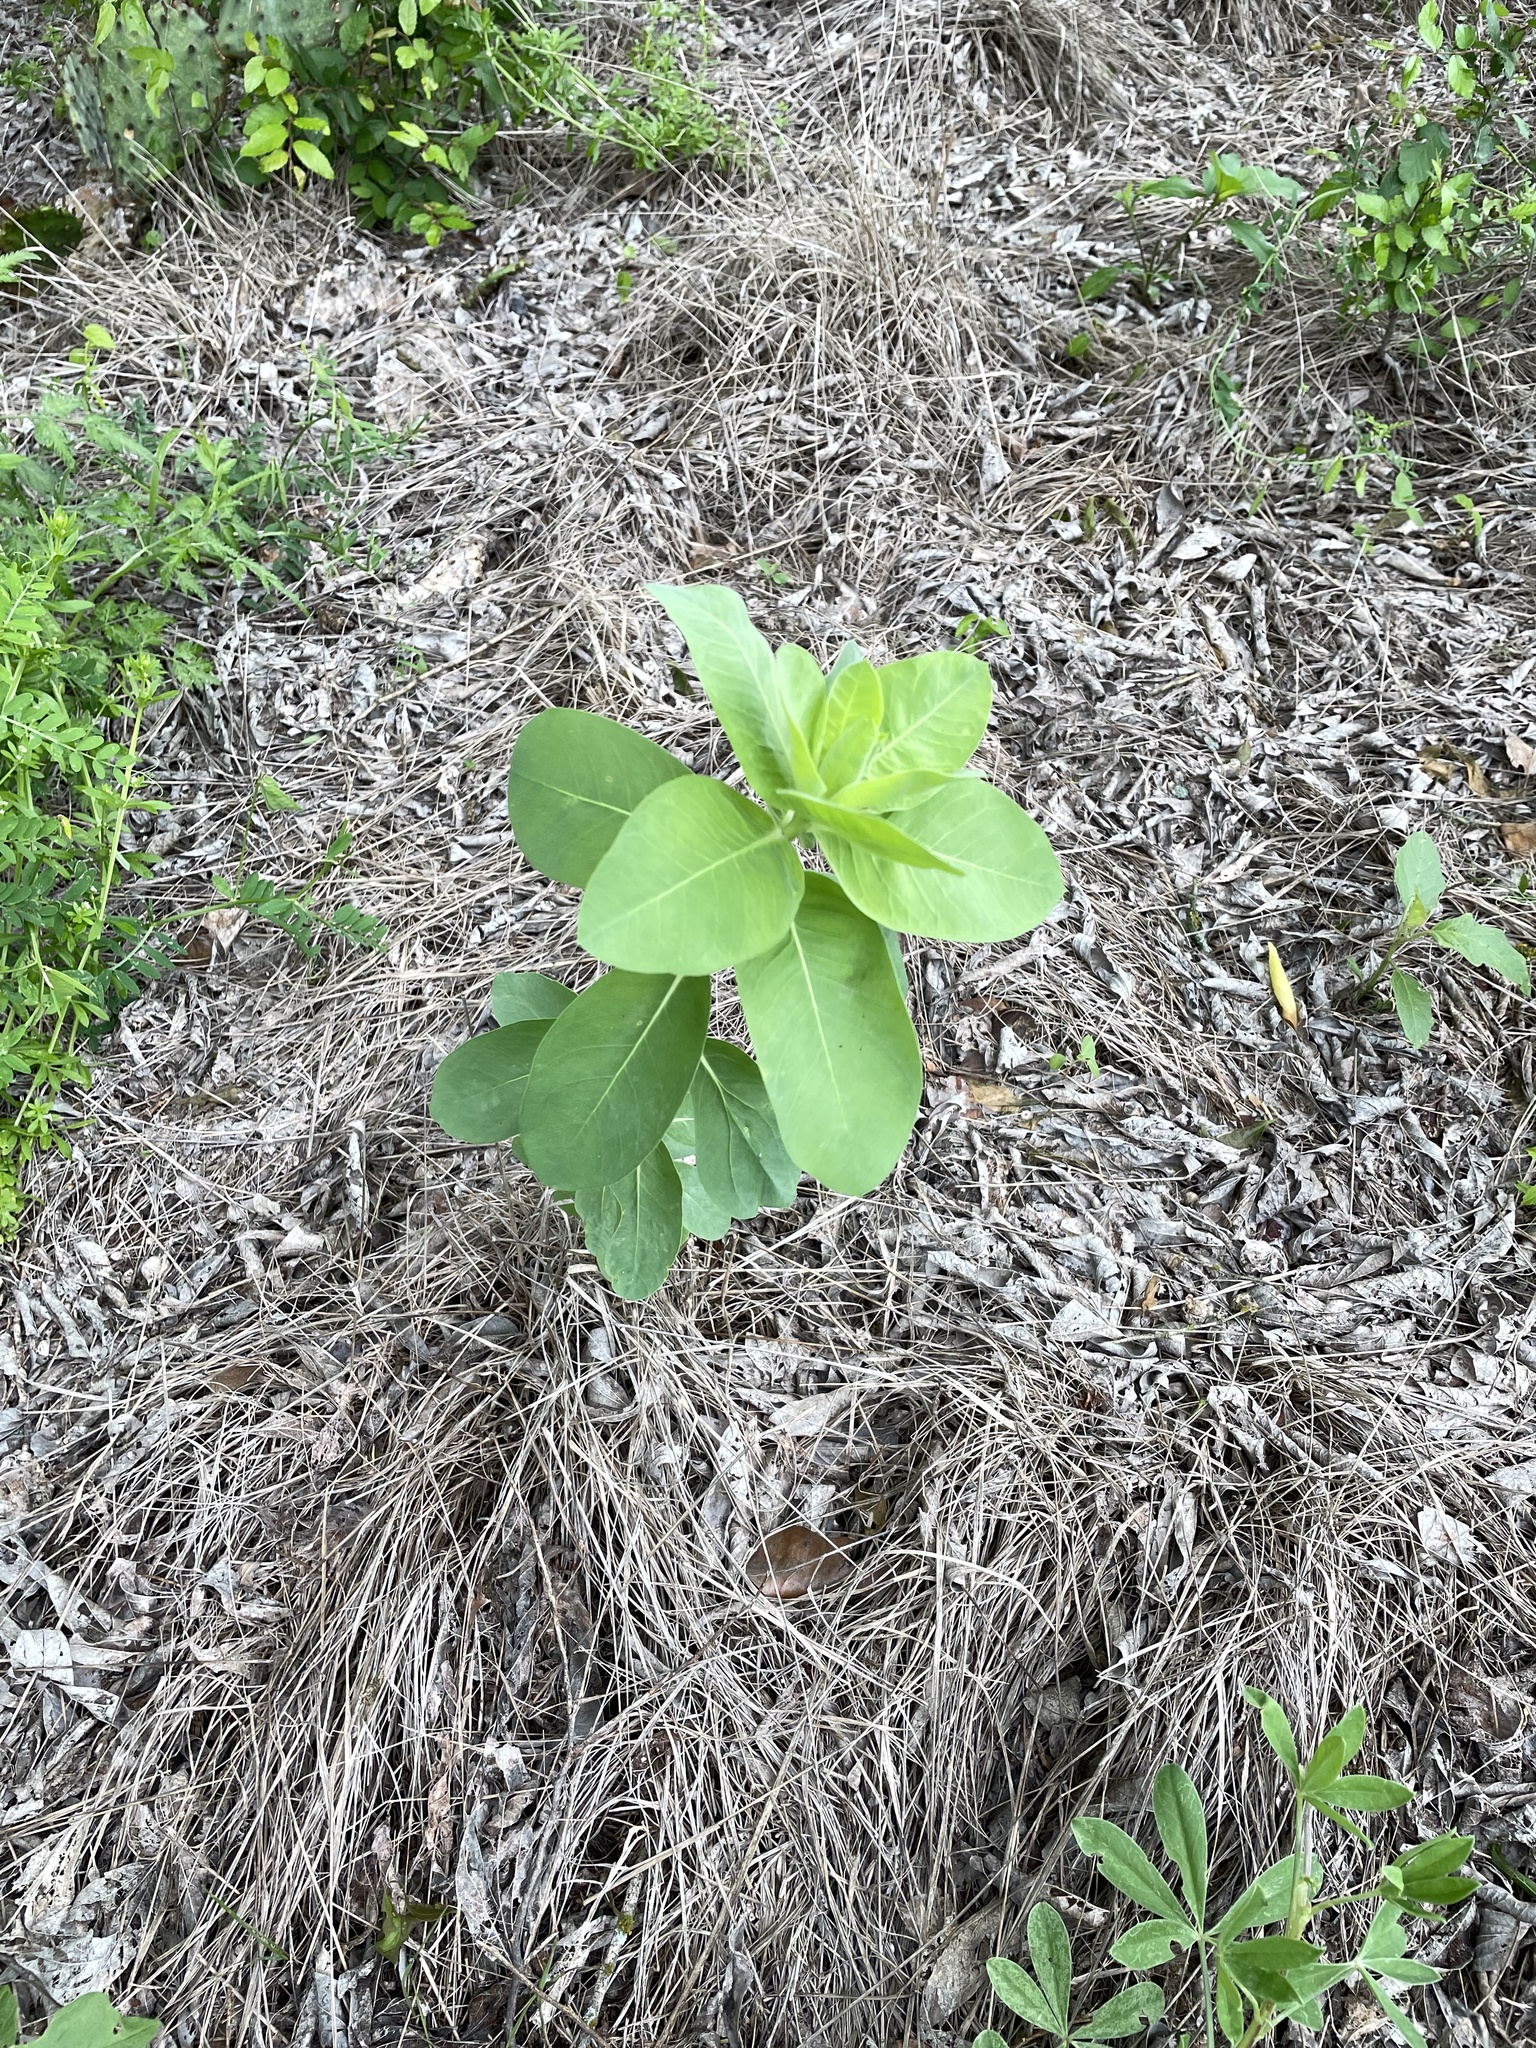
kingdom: Plantae
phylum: Tracheophyta
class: Magnoliopsida
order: Malpighiales
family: Euphorbiaceae
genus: Euphorbia
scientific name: Euphorbia bicolor
